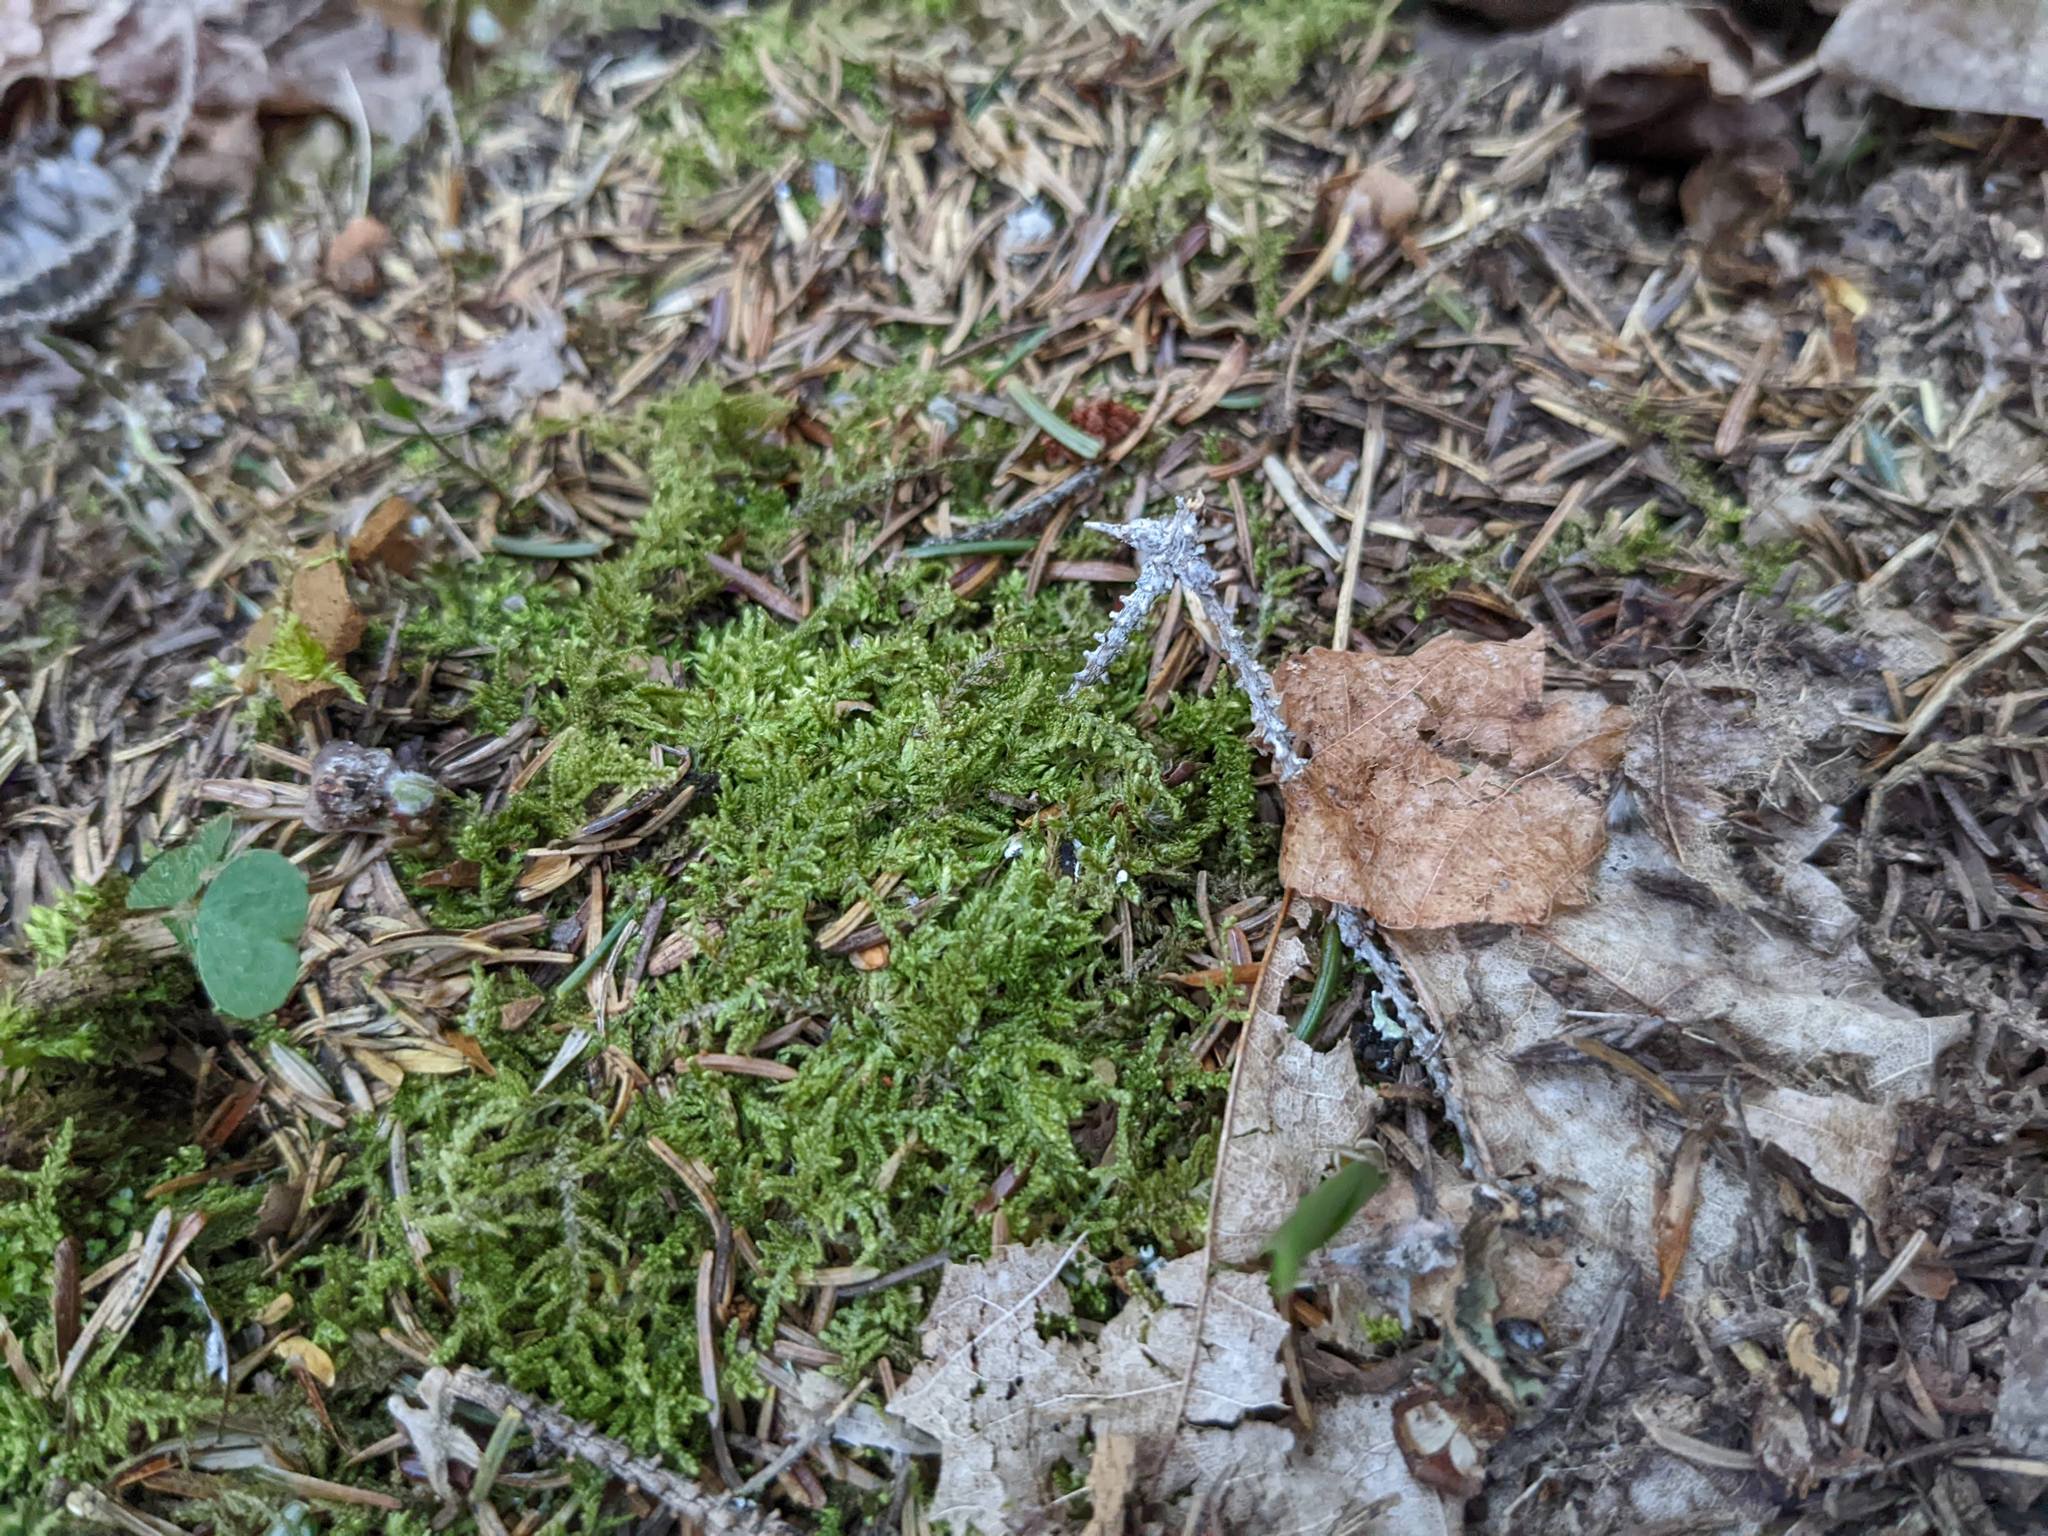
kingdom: Plantae
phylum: Bryophyta
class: Bryopsida
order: Hypnales
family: Callicladiaceae
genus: Callicladium
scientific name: Callicladium imponens
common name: Brocade moss
